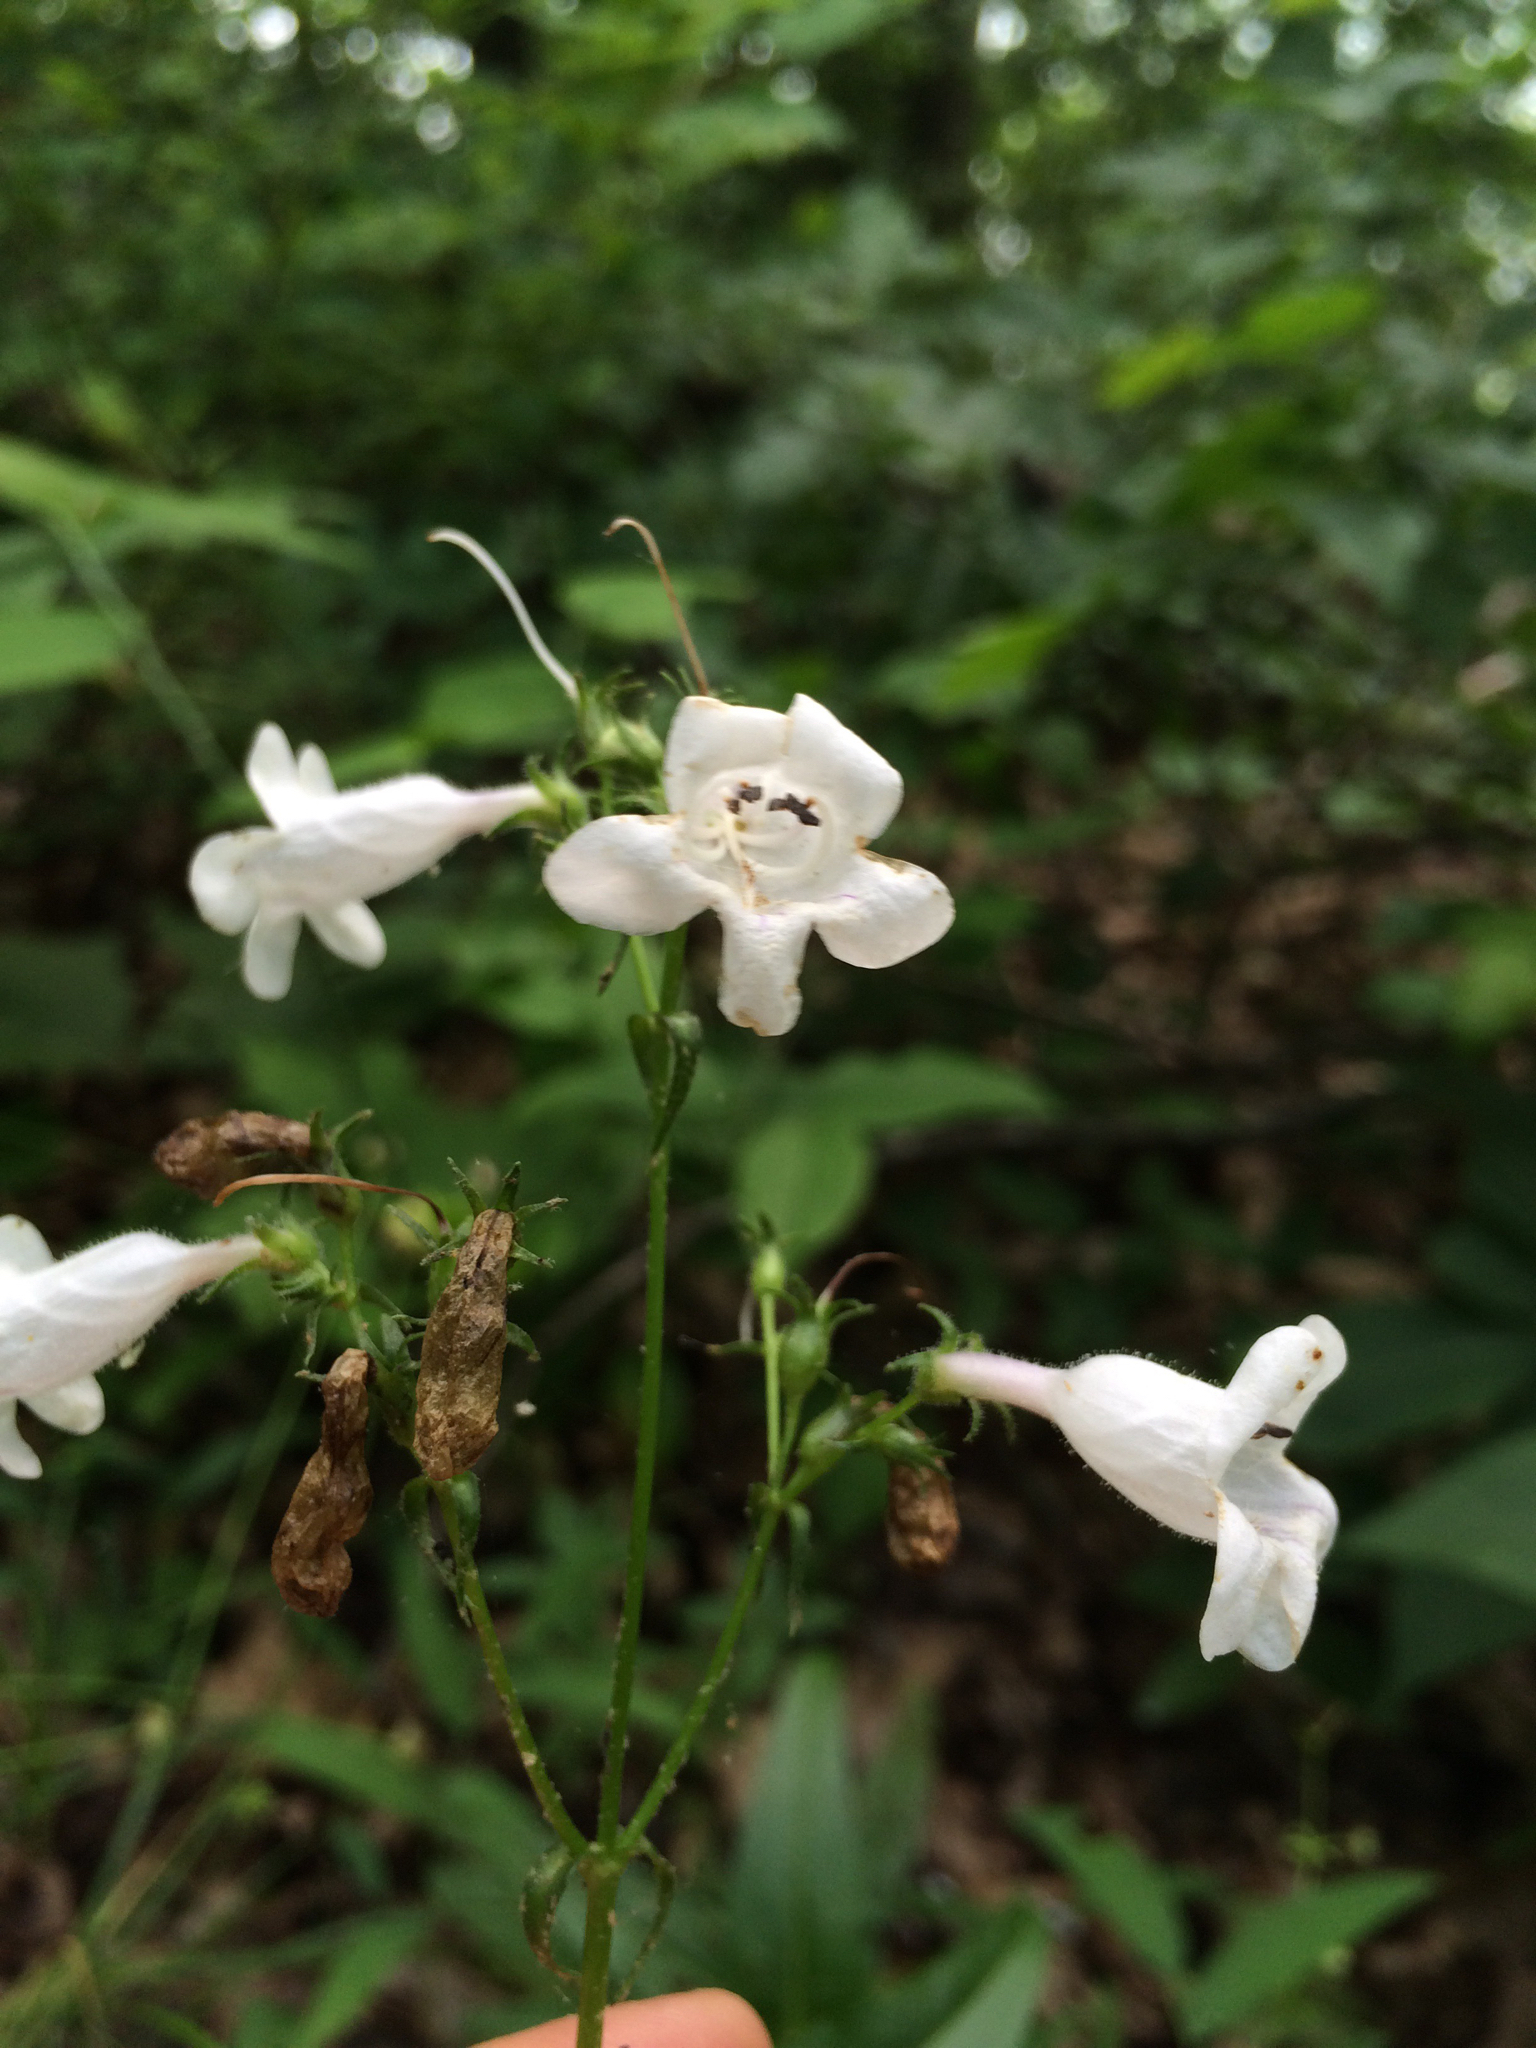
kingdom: Plantae
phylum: Tracheophyta
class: Magnoliopsida
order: Lamiales
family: Plantaginaceae
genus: Penstemon
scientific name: Penstemon digitalis
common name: Foxglove beardtongue
